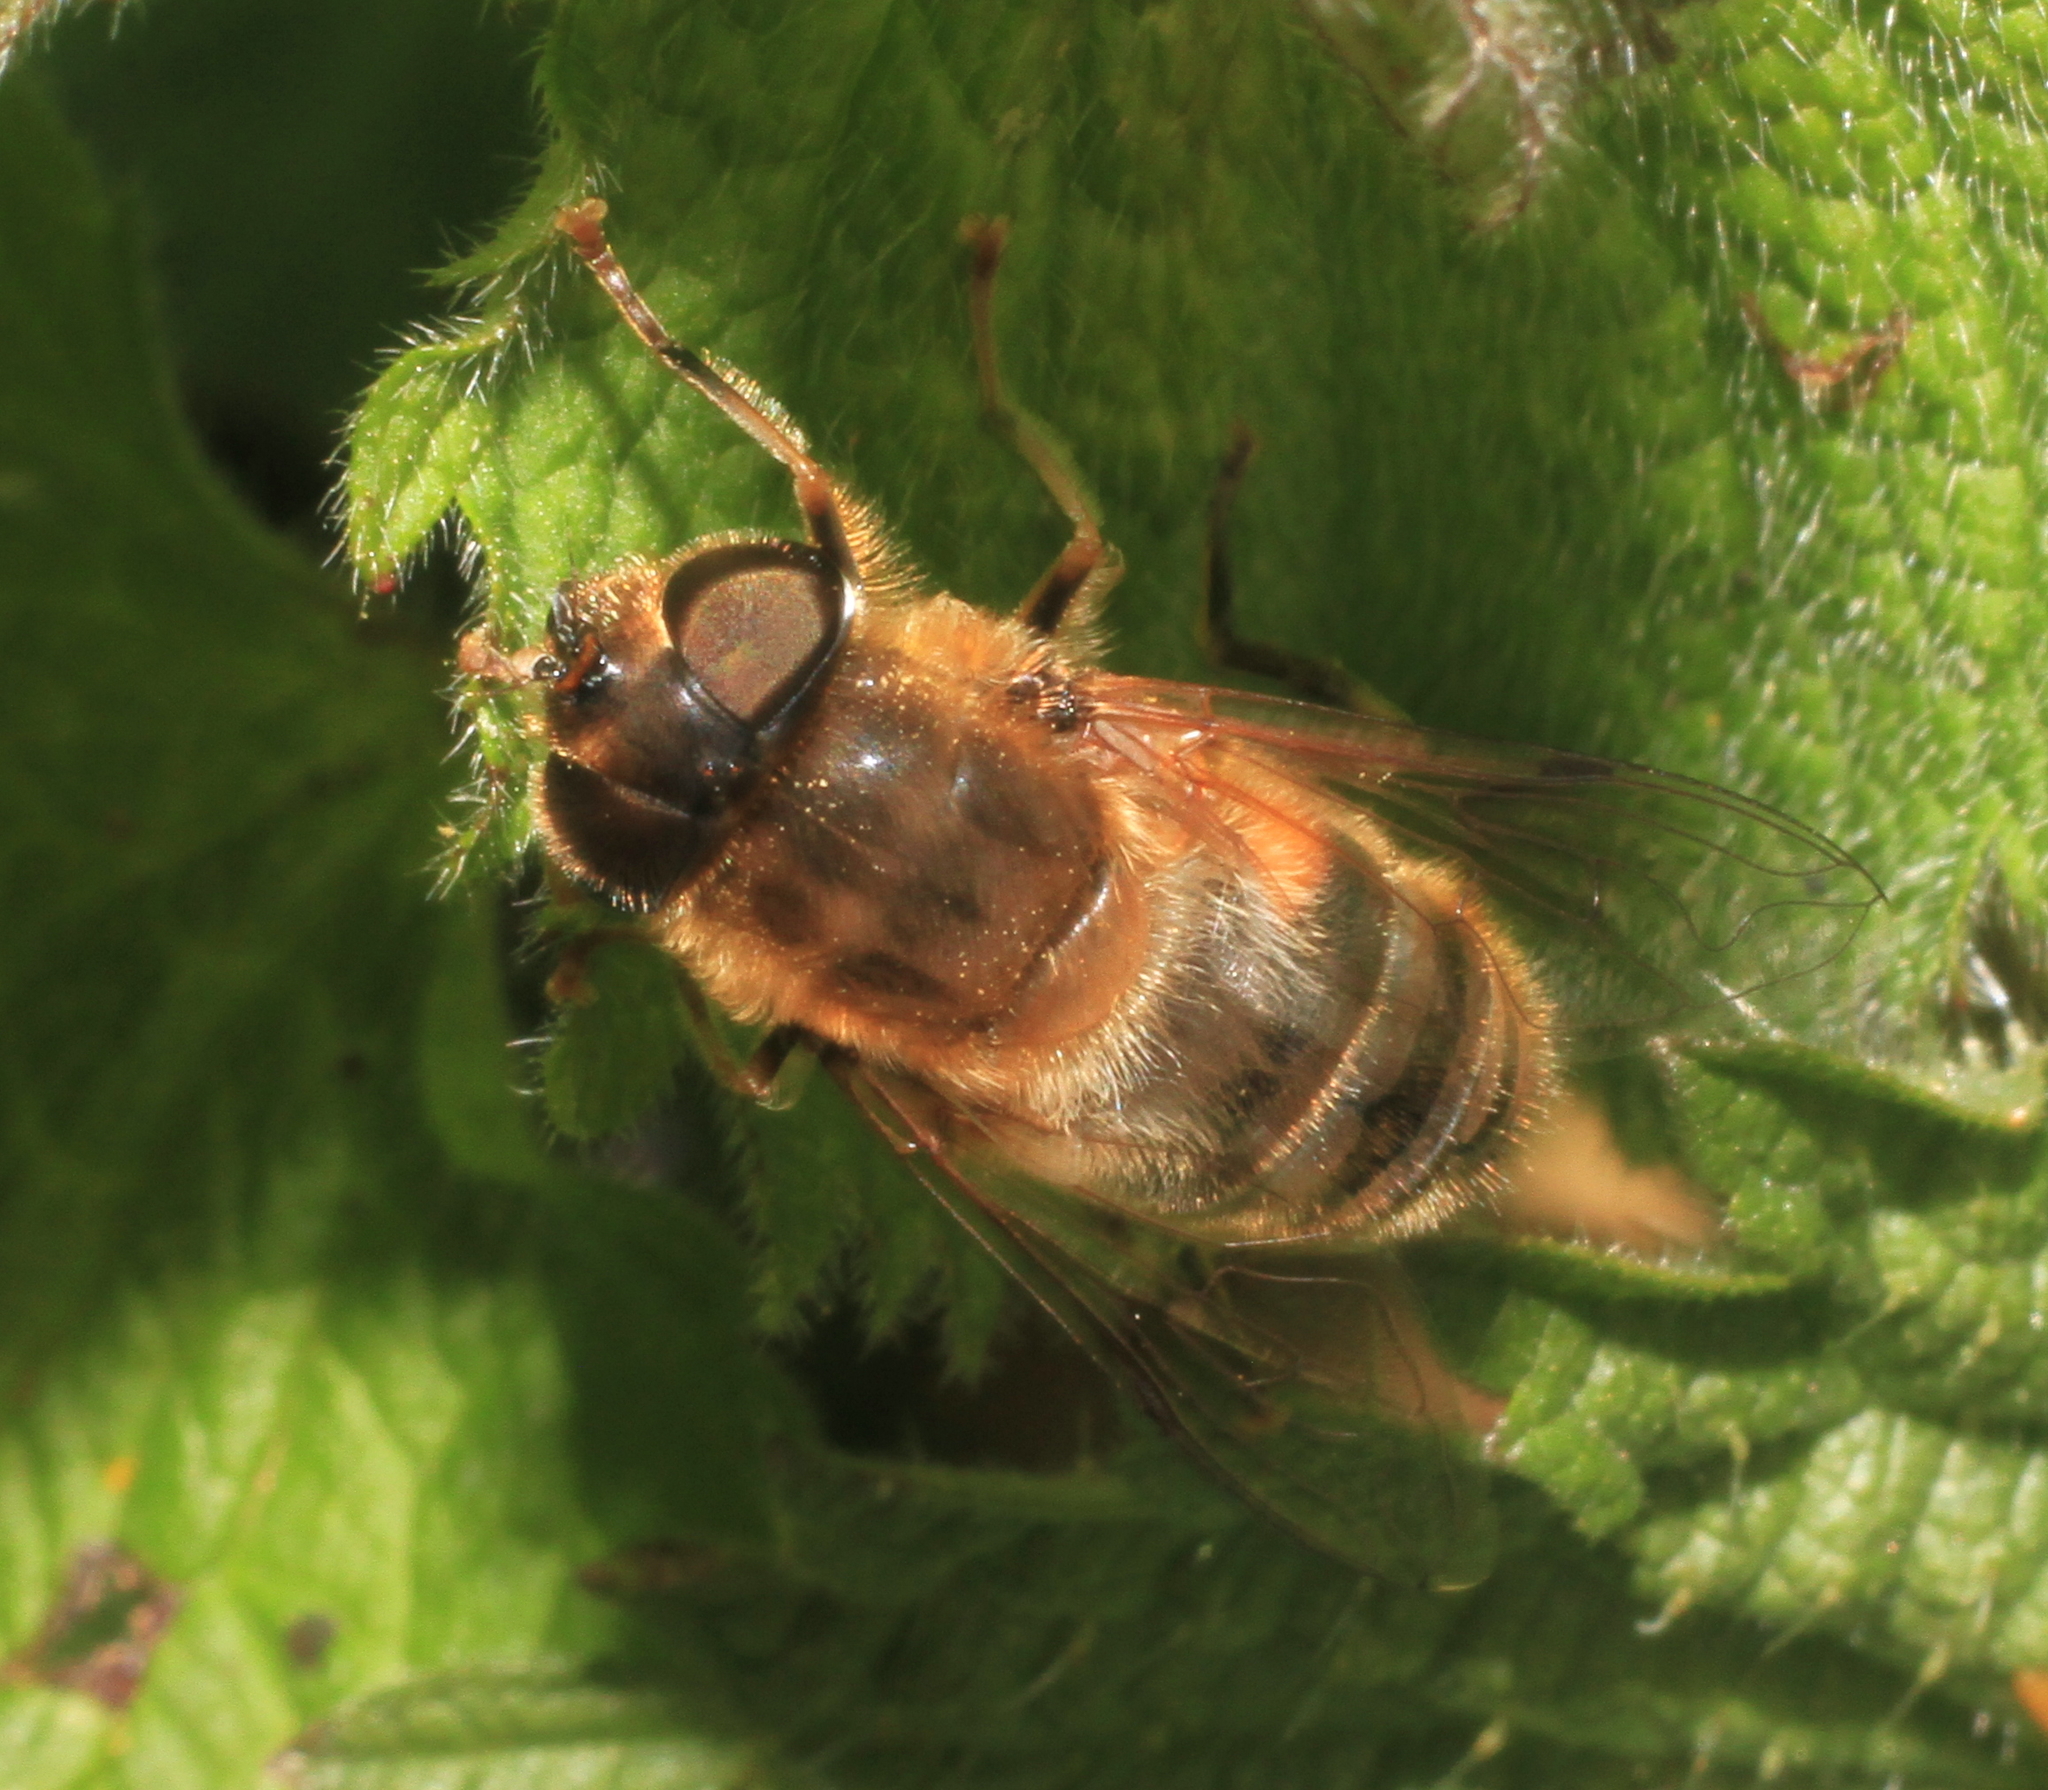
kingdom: Animalia
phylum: Arthropoda
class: Insecta
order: Diptera
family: Syrphidae
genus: Eristalis
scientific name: Eristalis pertinax
